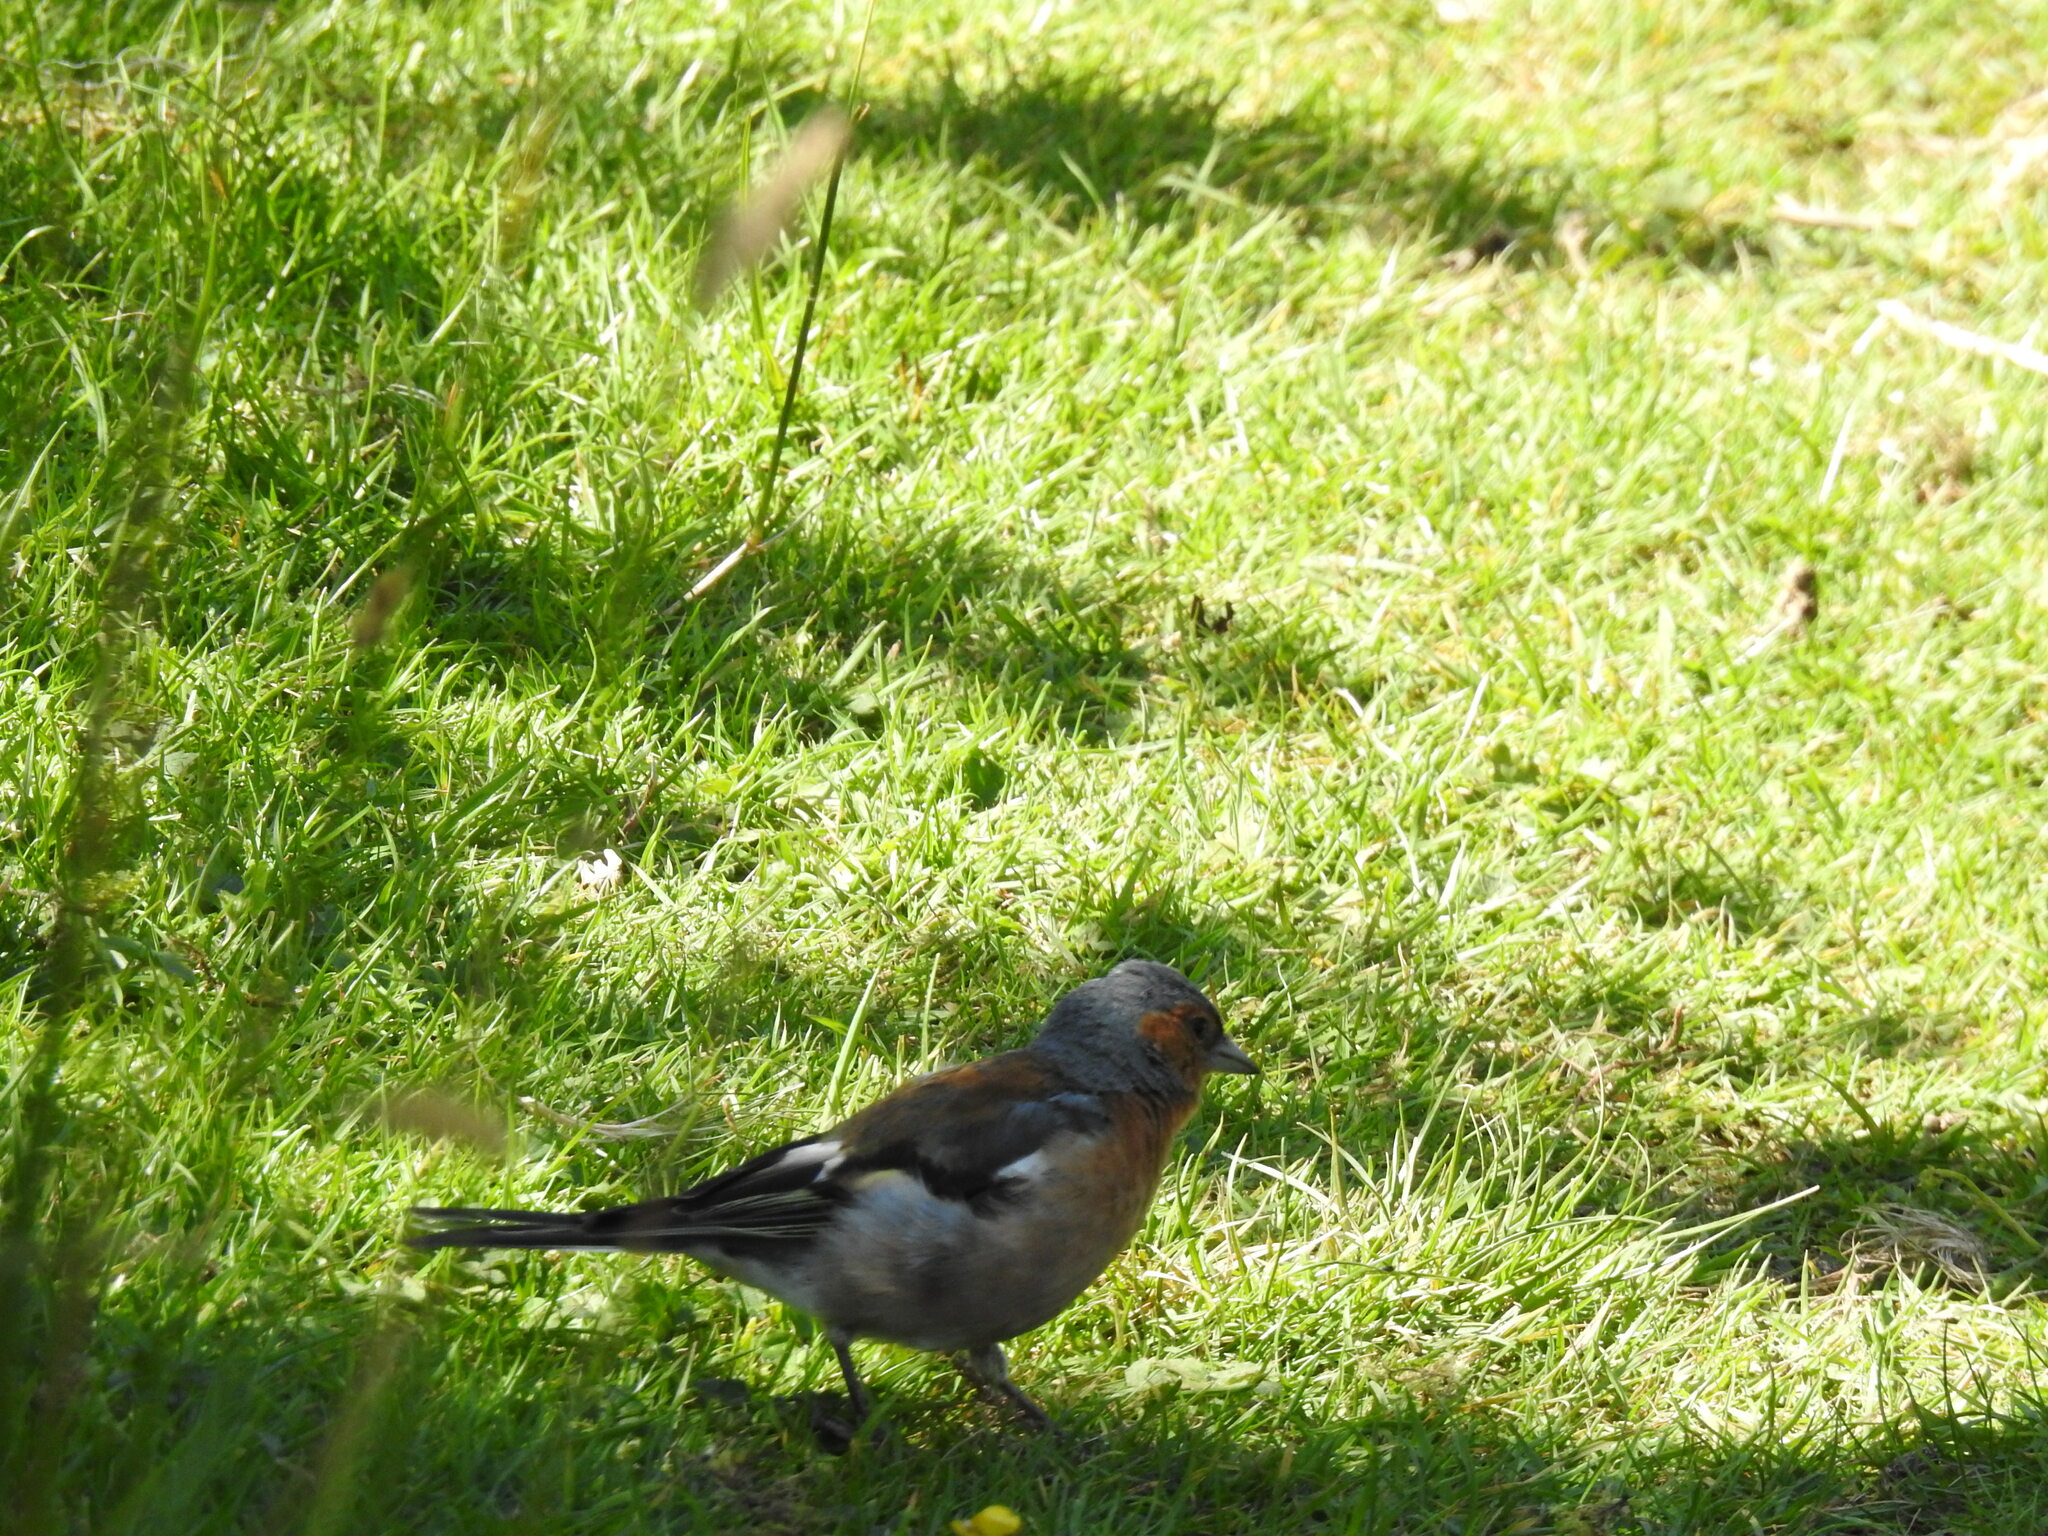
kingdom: Animalia
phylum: Chordata
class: Aves
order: Passeriformes
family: Fringillidae
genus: Fringilla
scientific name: Fringilla coelebs
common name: Common chaffinch
